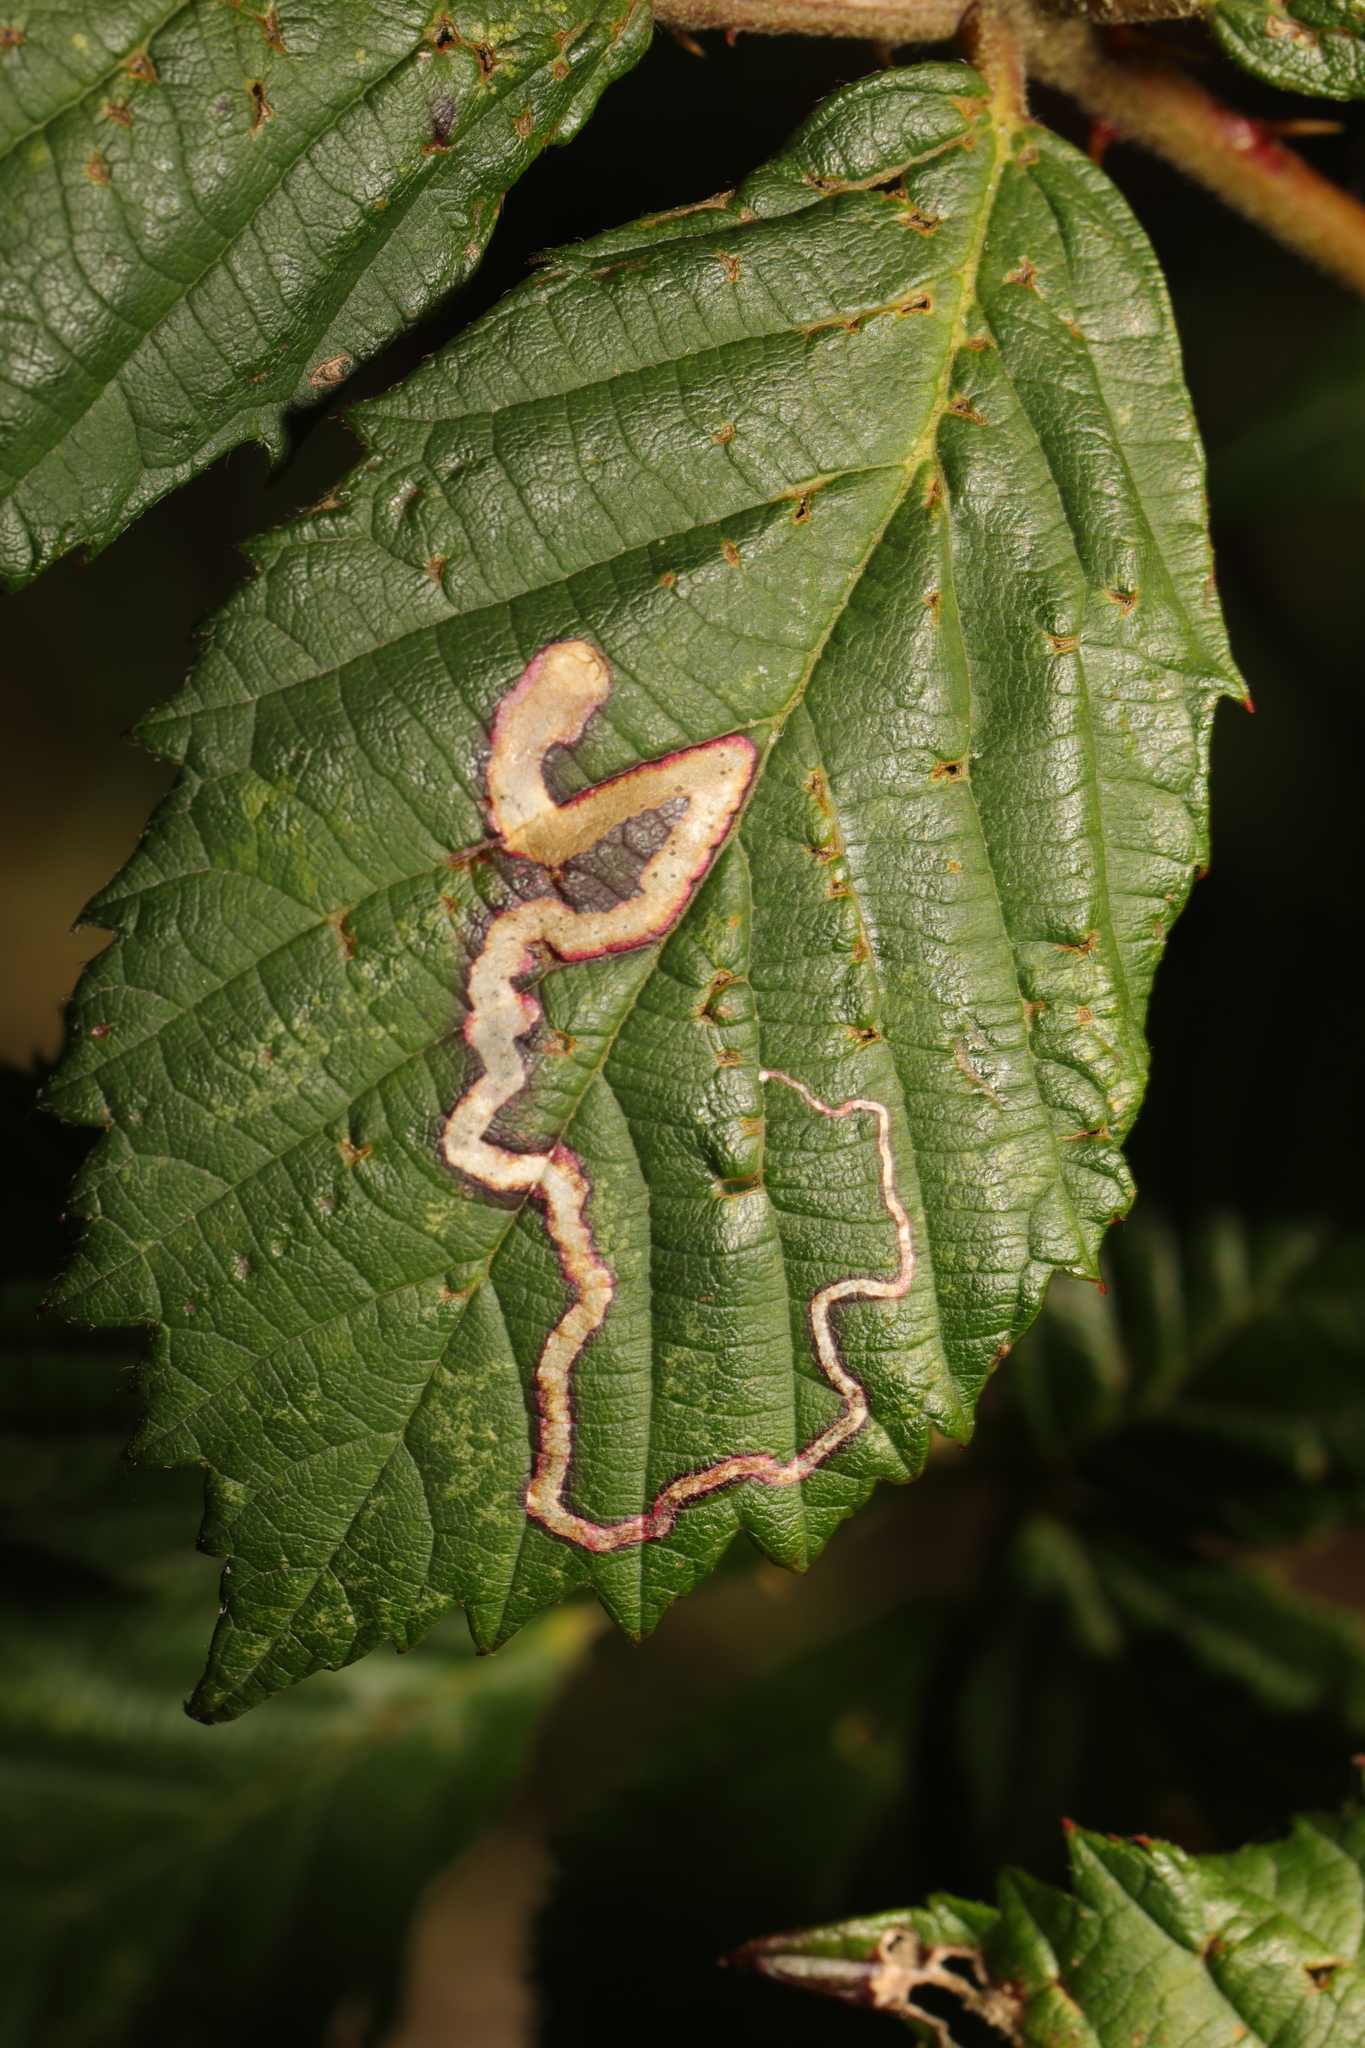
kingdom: Animalia
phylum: Arthropoda
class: Insecta
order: Lepidoptera
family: Nepticulidae
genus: Stigmella
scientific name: Stigmella aurella
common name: Golden pigmy
